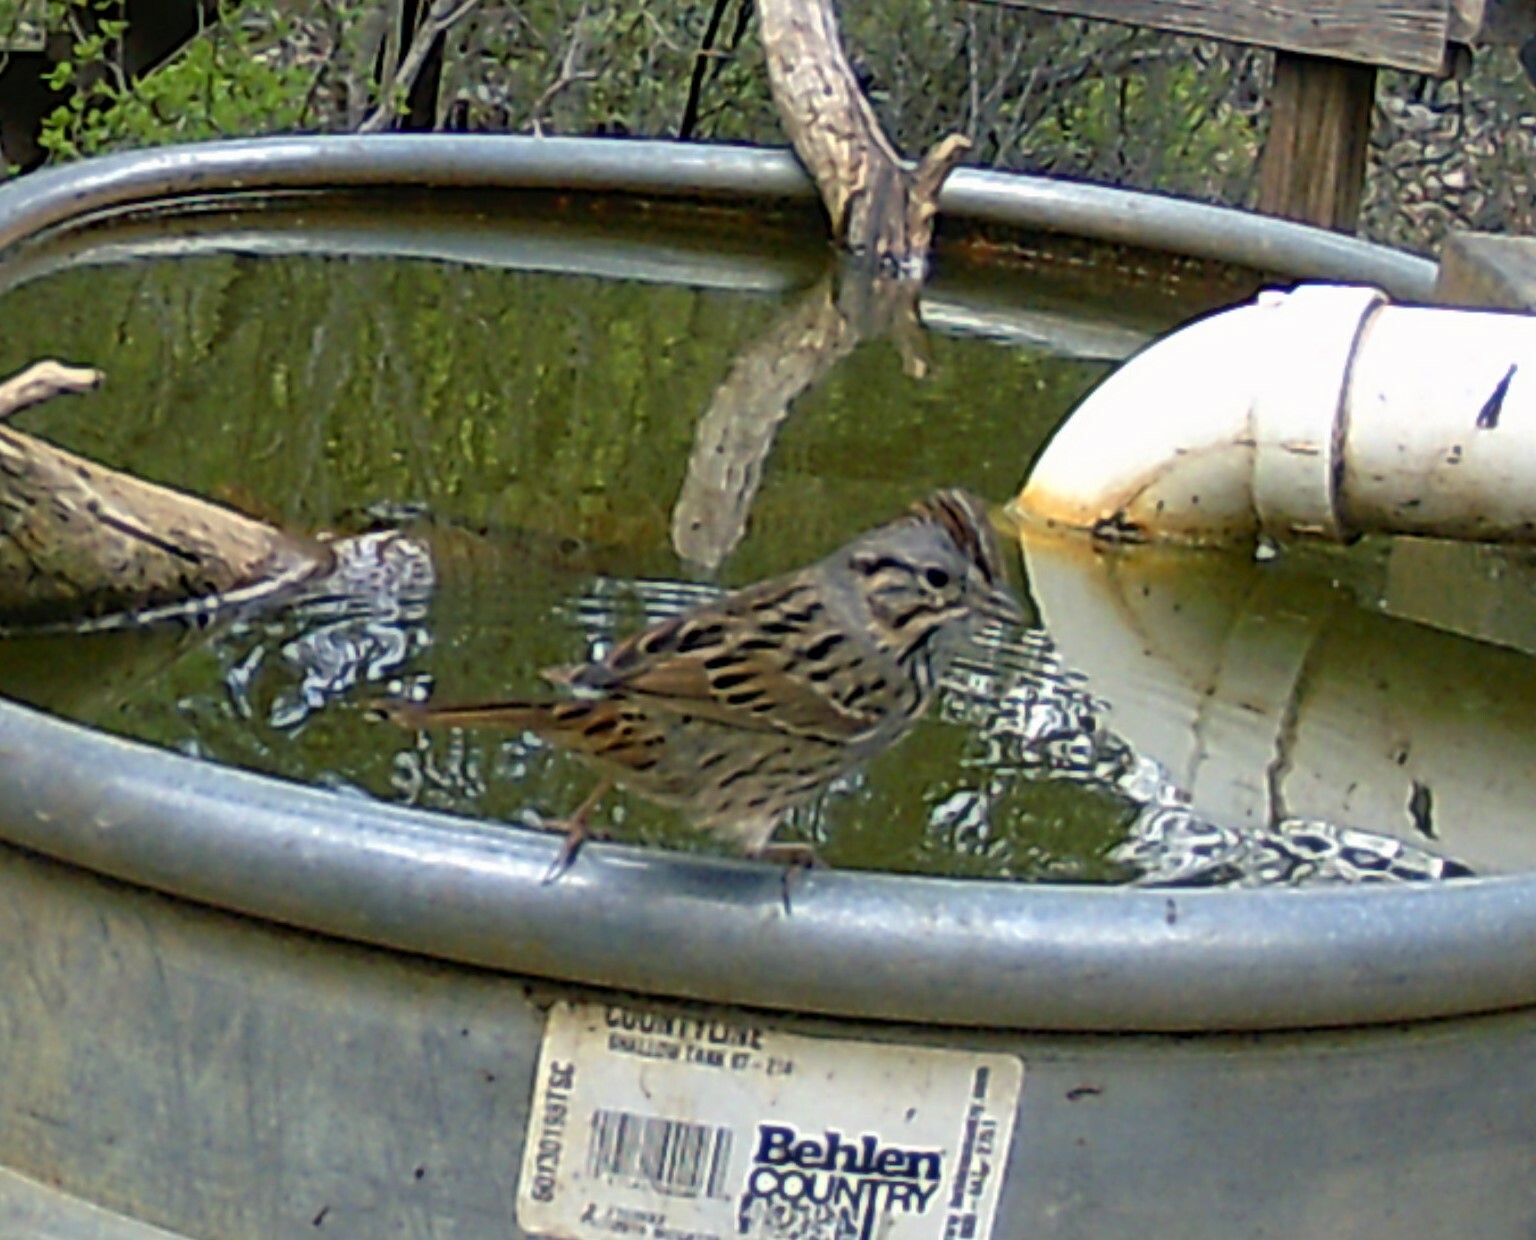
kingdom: Animalia
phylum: Chordata
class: Aves
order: Passeriformes
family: Passerellidae
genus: Melospiza
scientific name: Melospiza lincolnii
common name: Lincoln's sparrow
